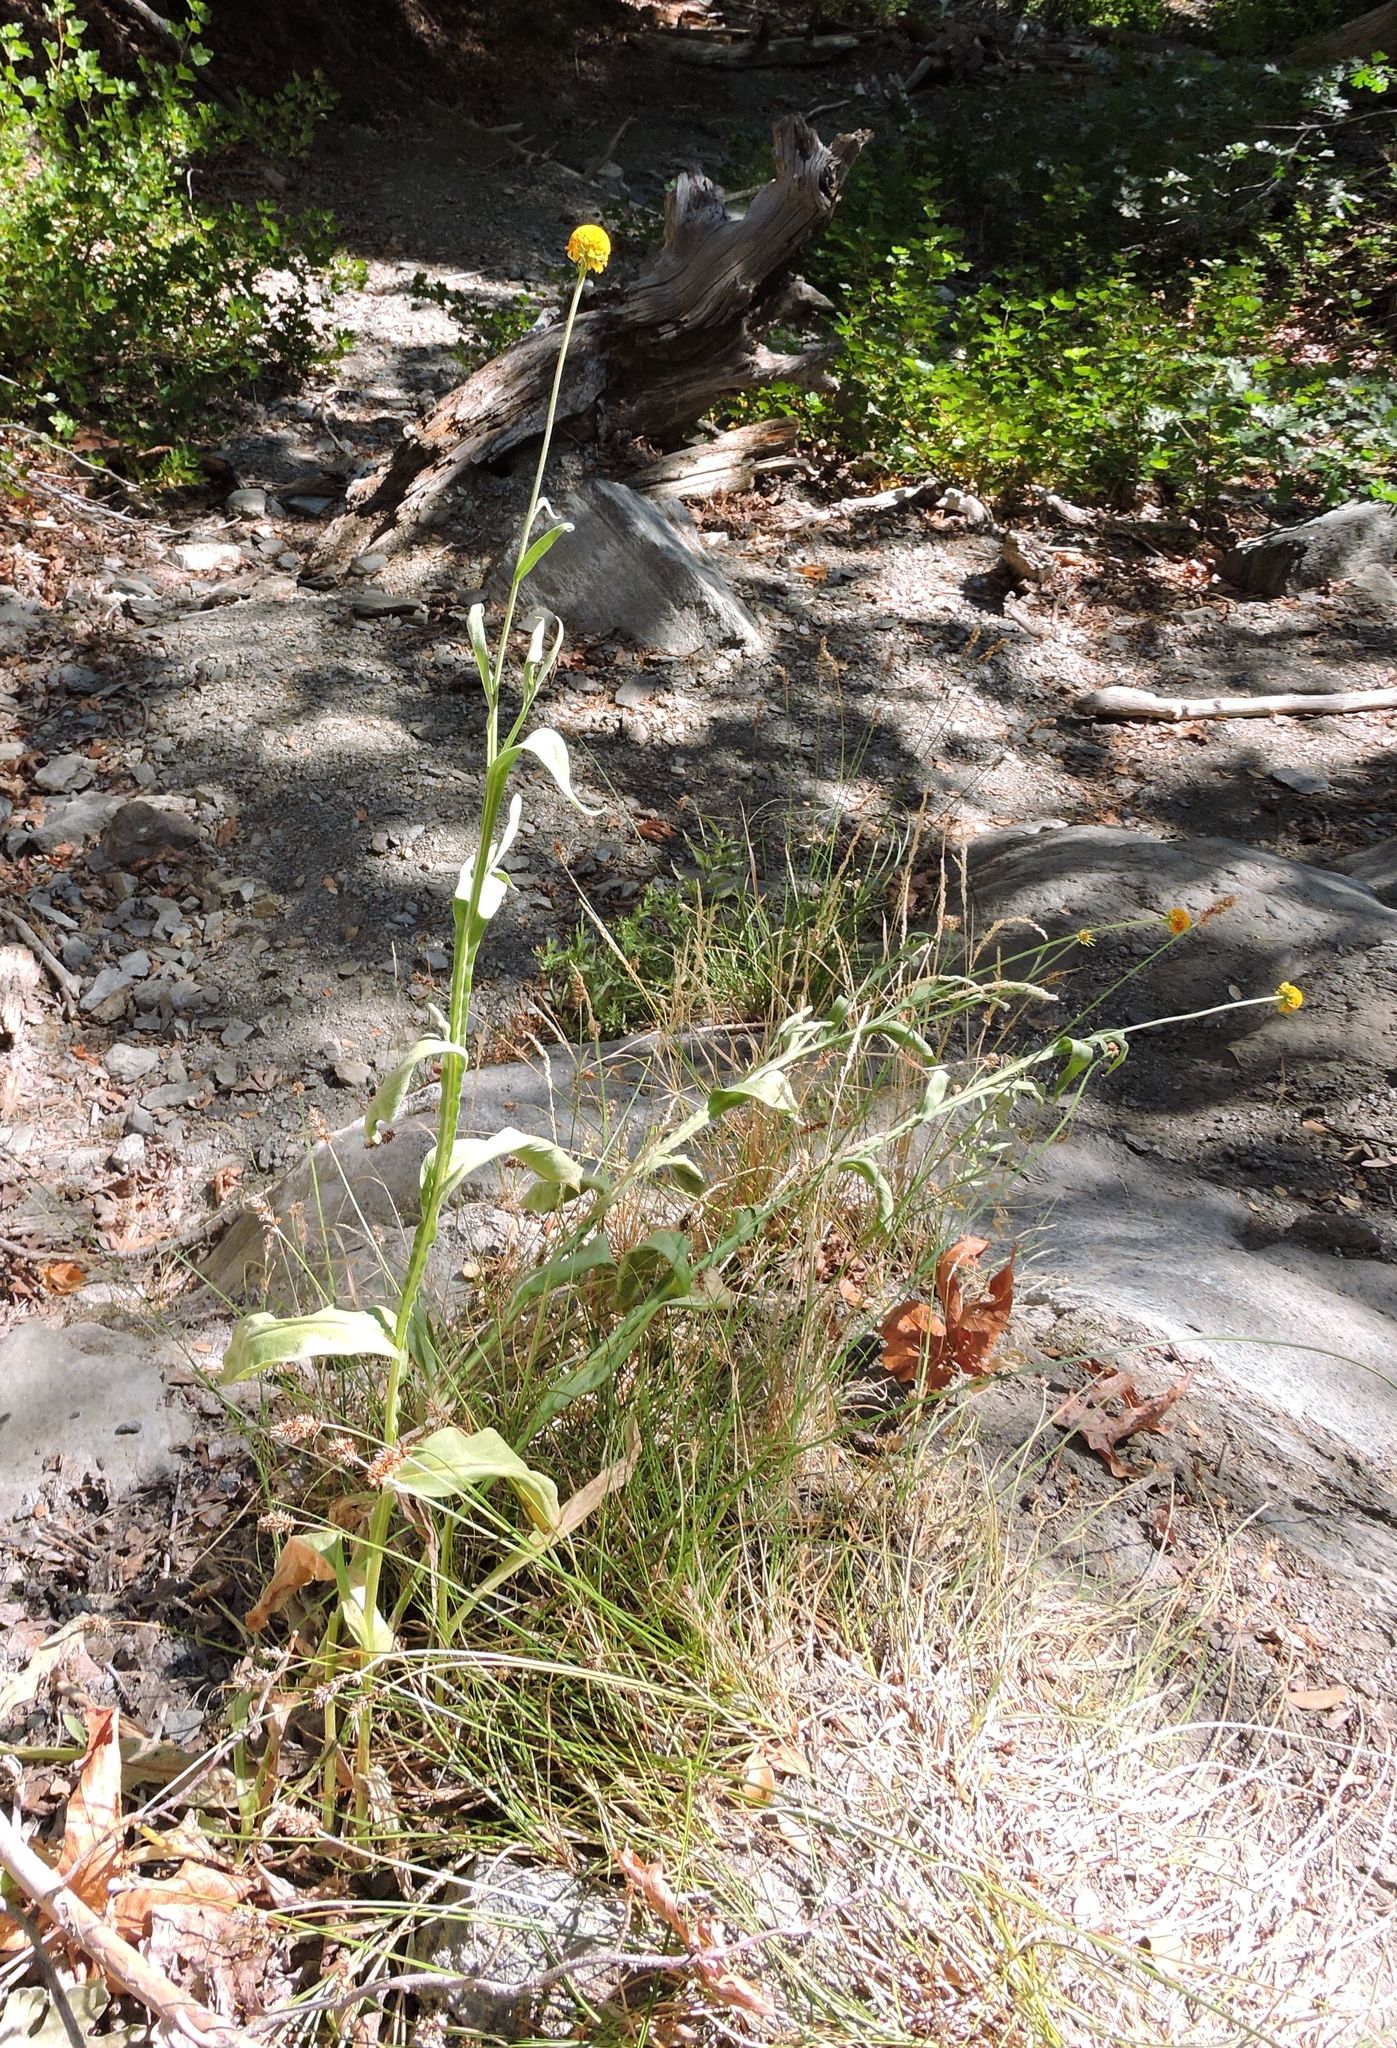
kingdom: Plantae
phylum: Tracheophyta
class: Magnoliopsida
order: Asterales
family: Asteraceae
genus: Helenium
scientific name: Helenium bigelovii
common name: Bigelow's sneezeweed
